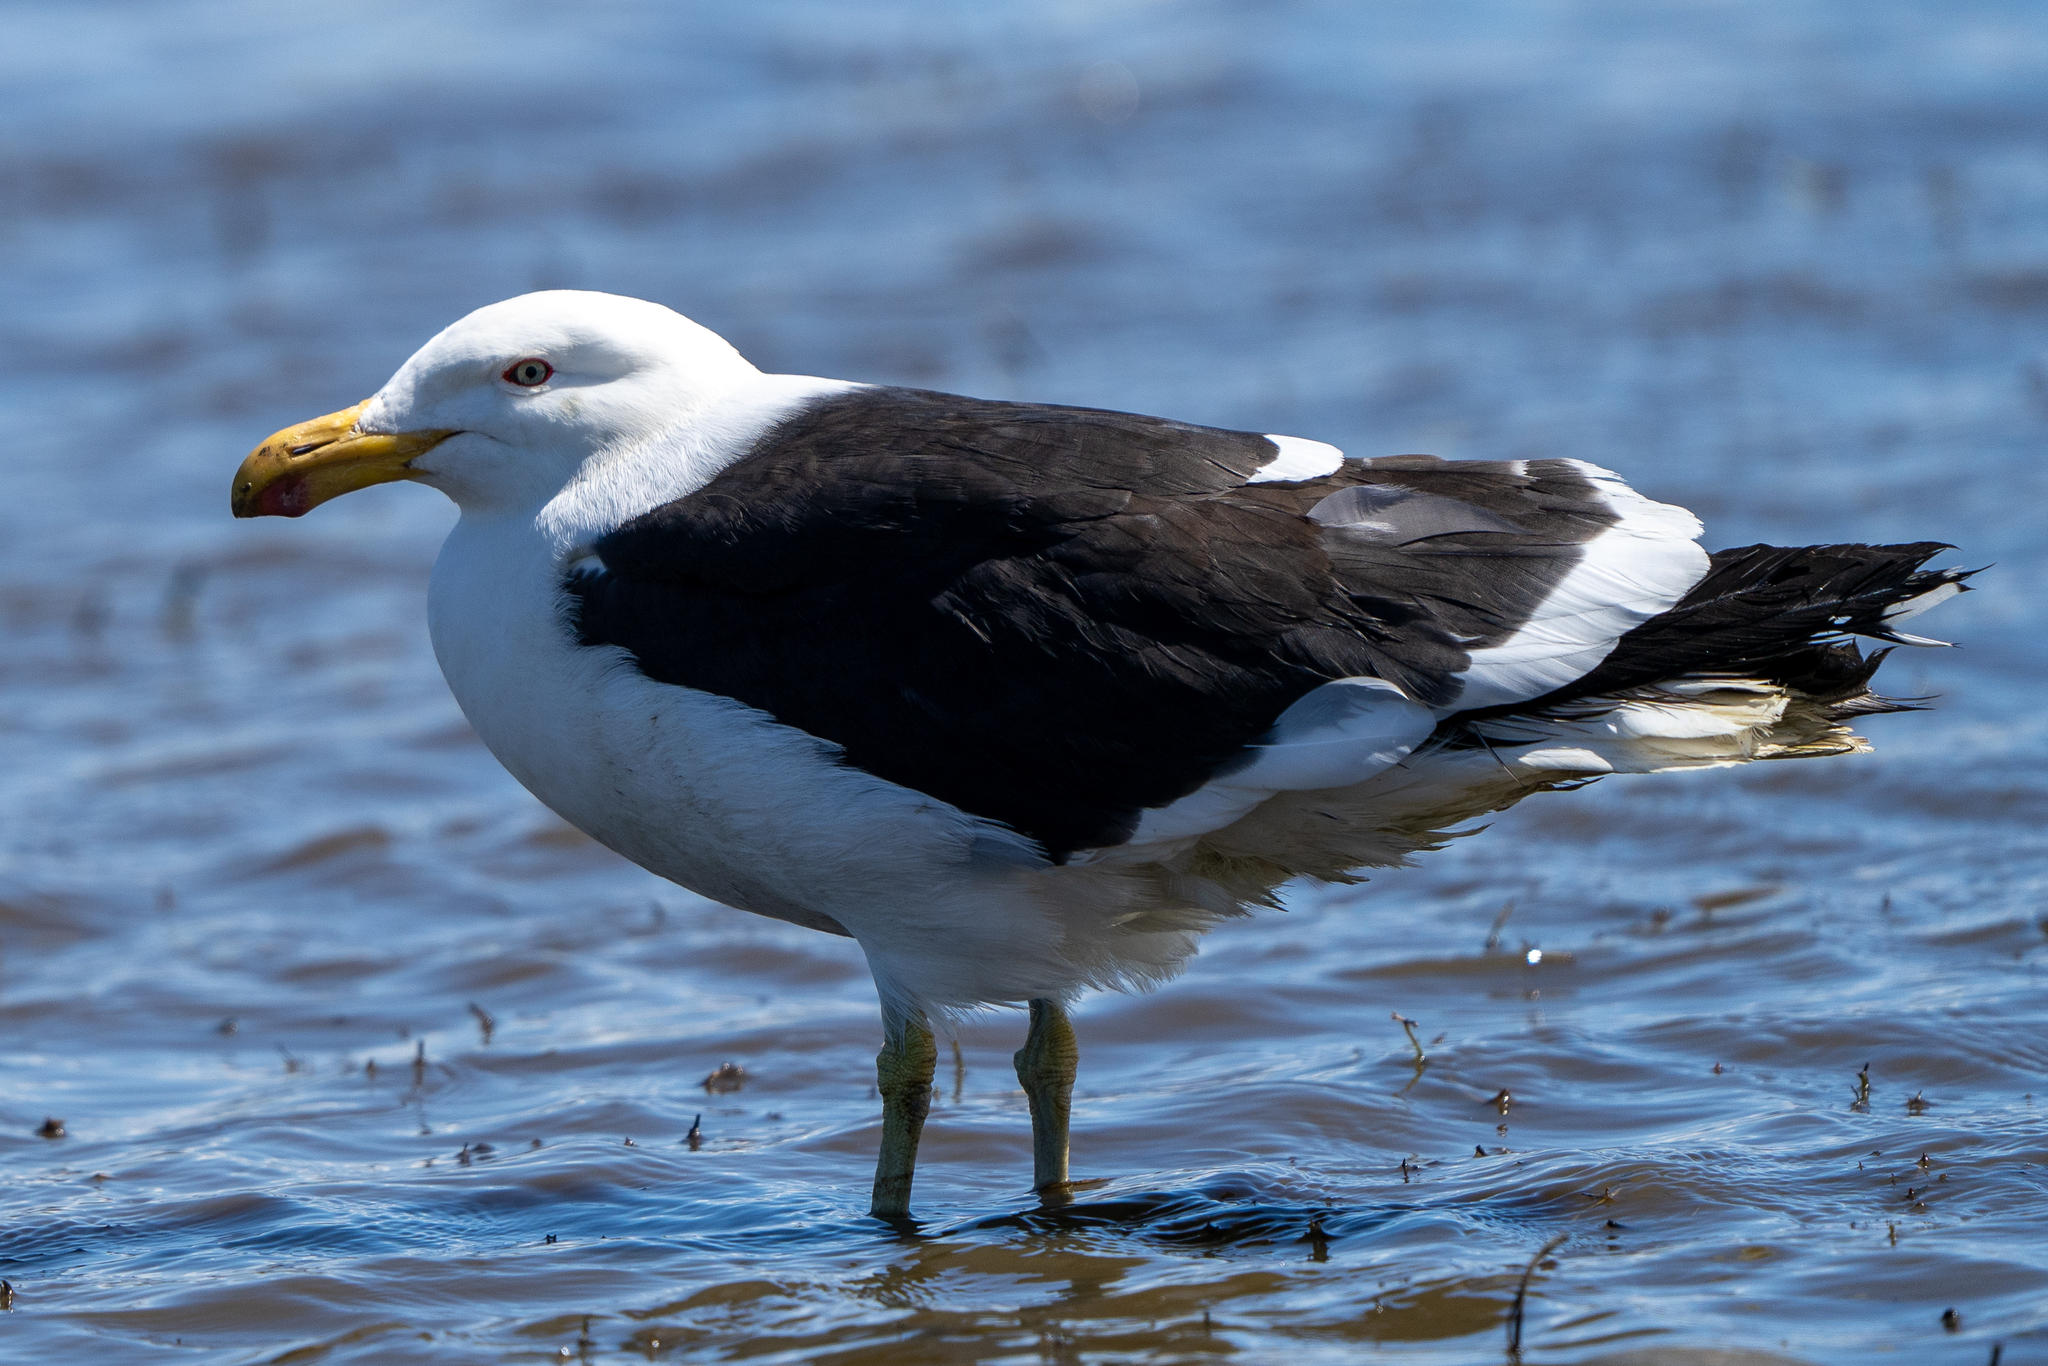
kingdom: Animalia
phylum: Chordata
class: Aves
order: Charadriiformes
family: Laridae
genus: Larus
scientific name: Larus dominicanus
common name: Kelp gull
